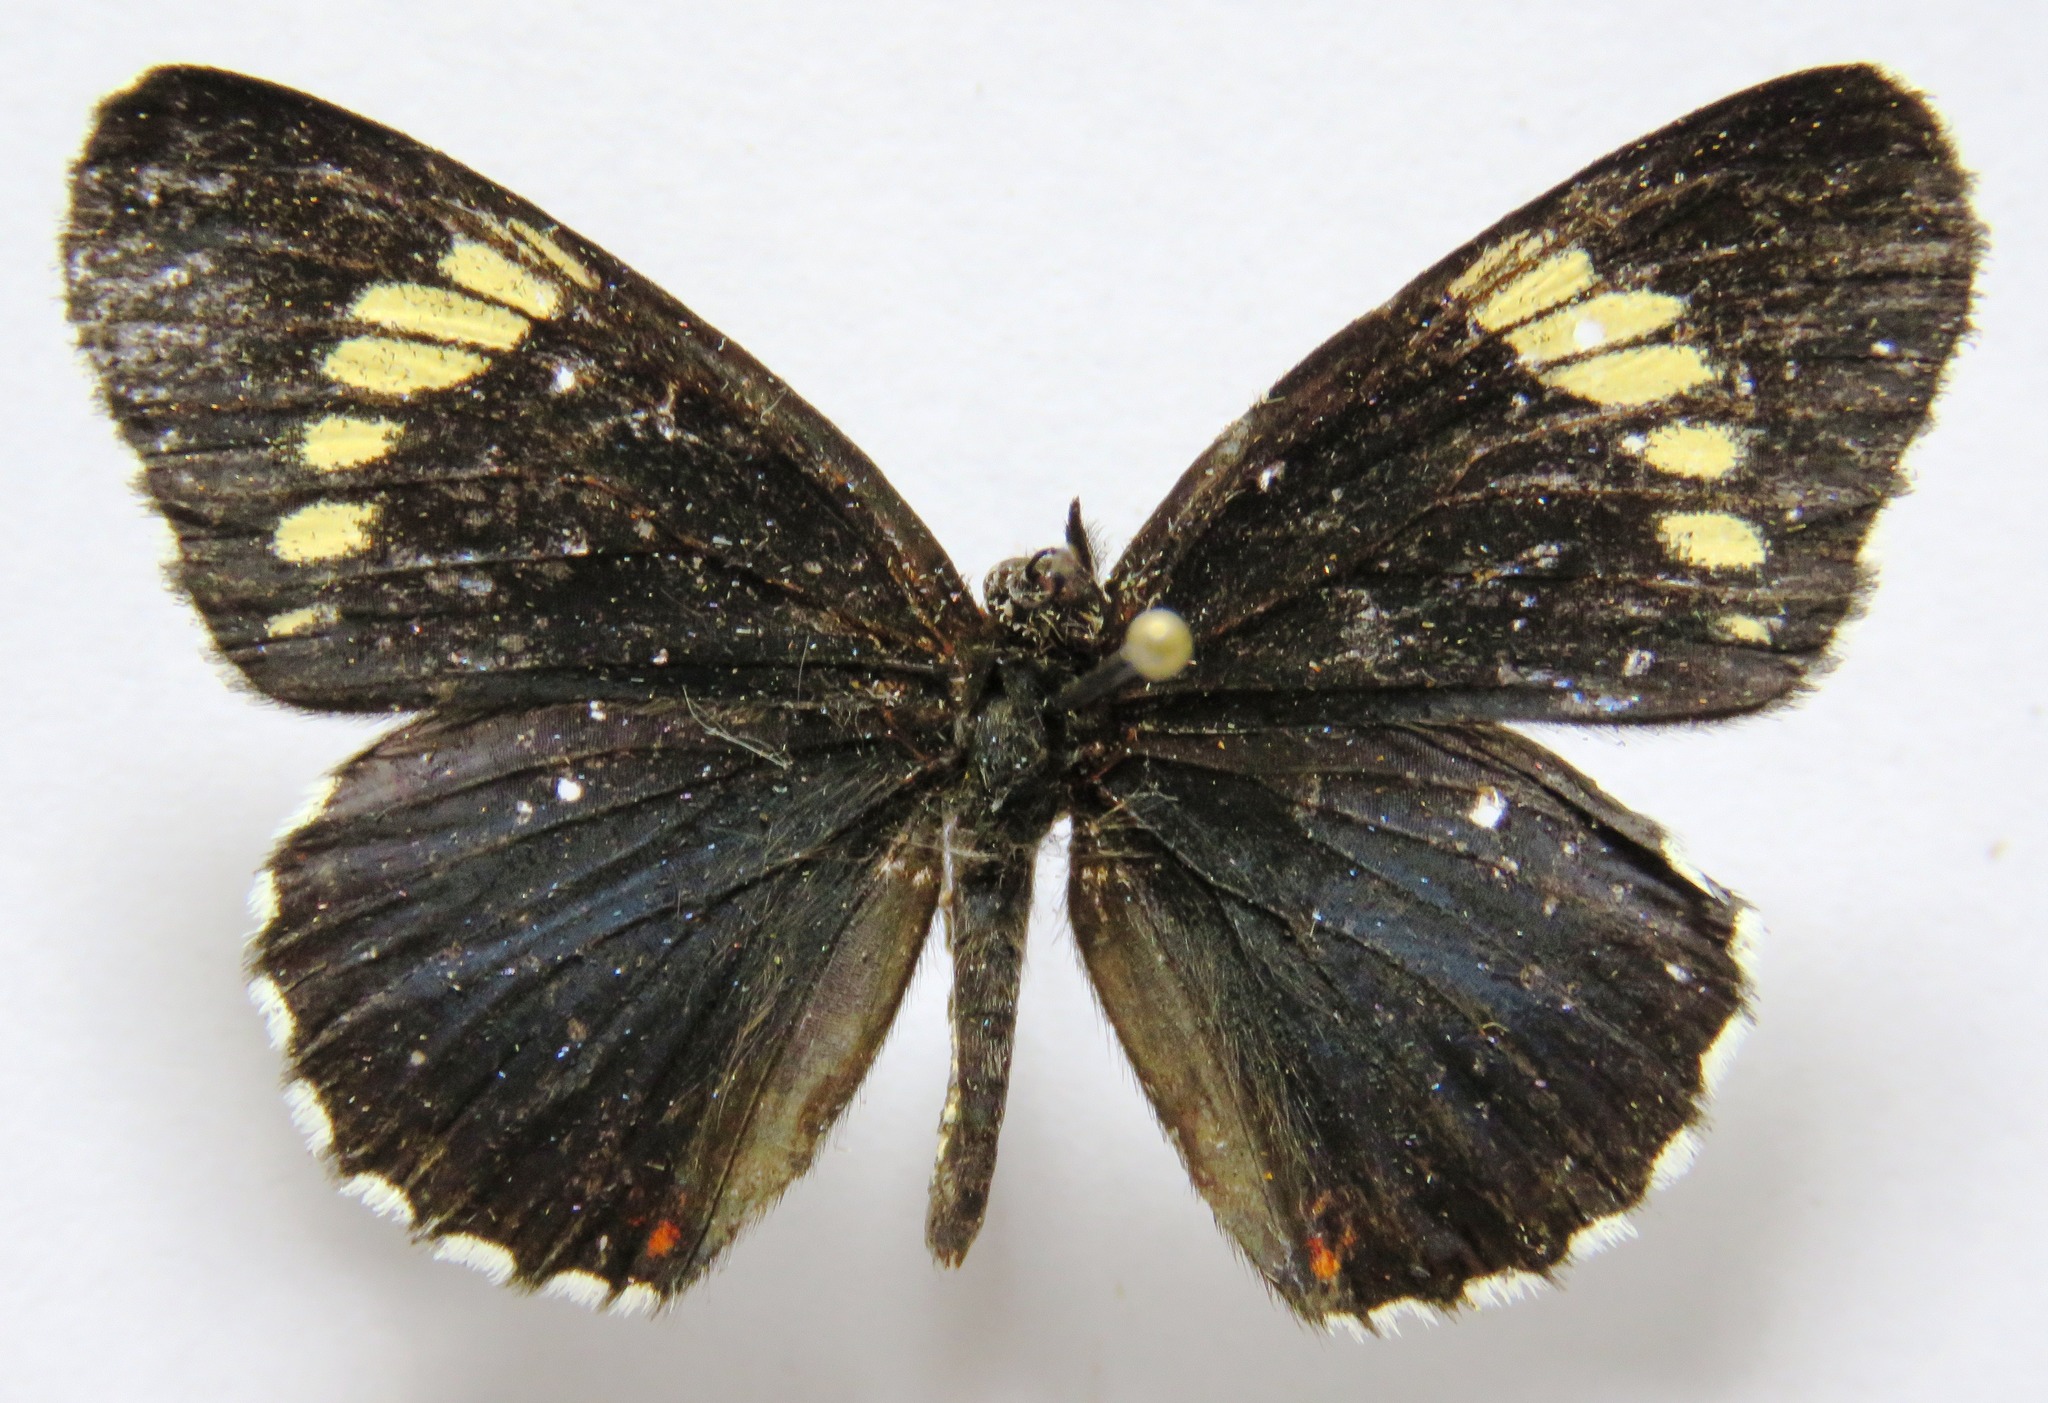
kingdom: Animalia
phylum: Arthropoda
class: Insecta
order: Lepidoptera
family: Nymphalidae
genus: Chlosyne
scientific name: Chlosyne melanarge
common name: Cream-banded checkerspot
